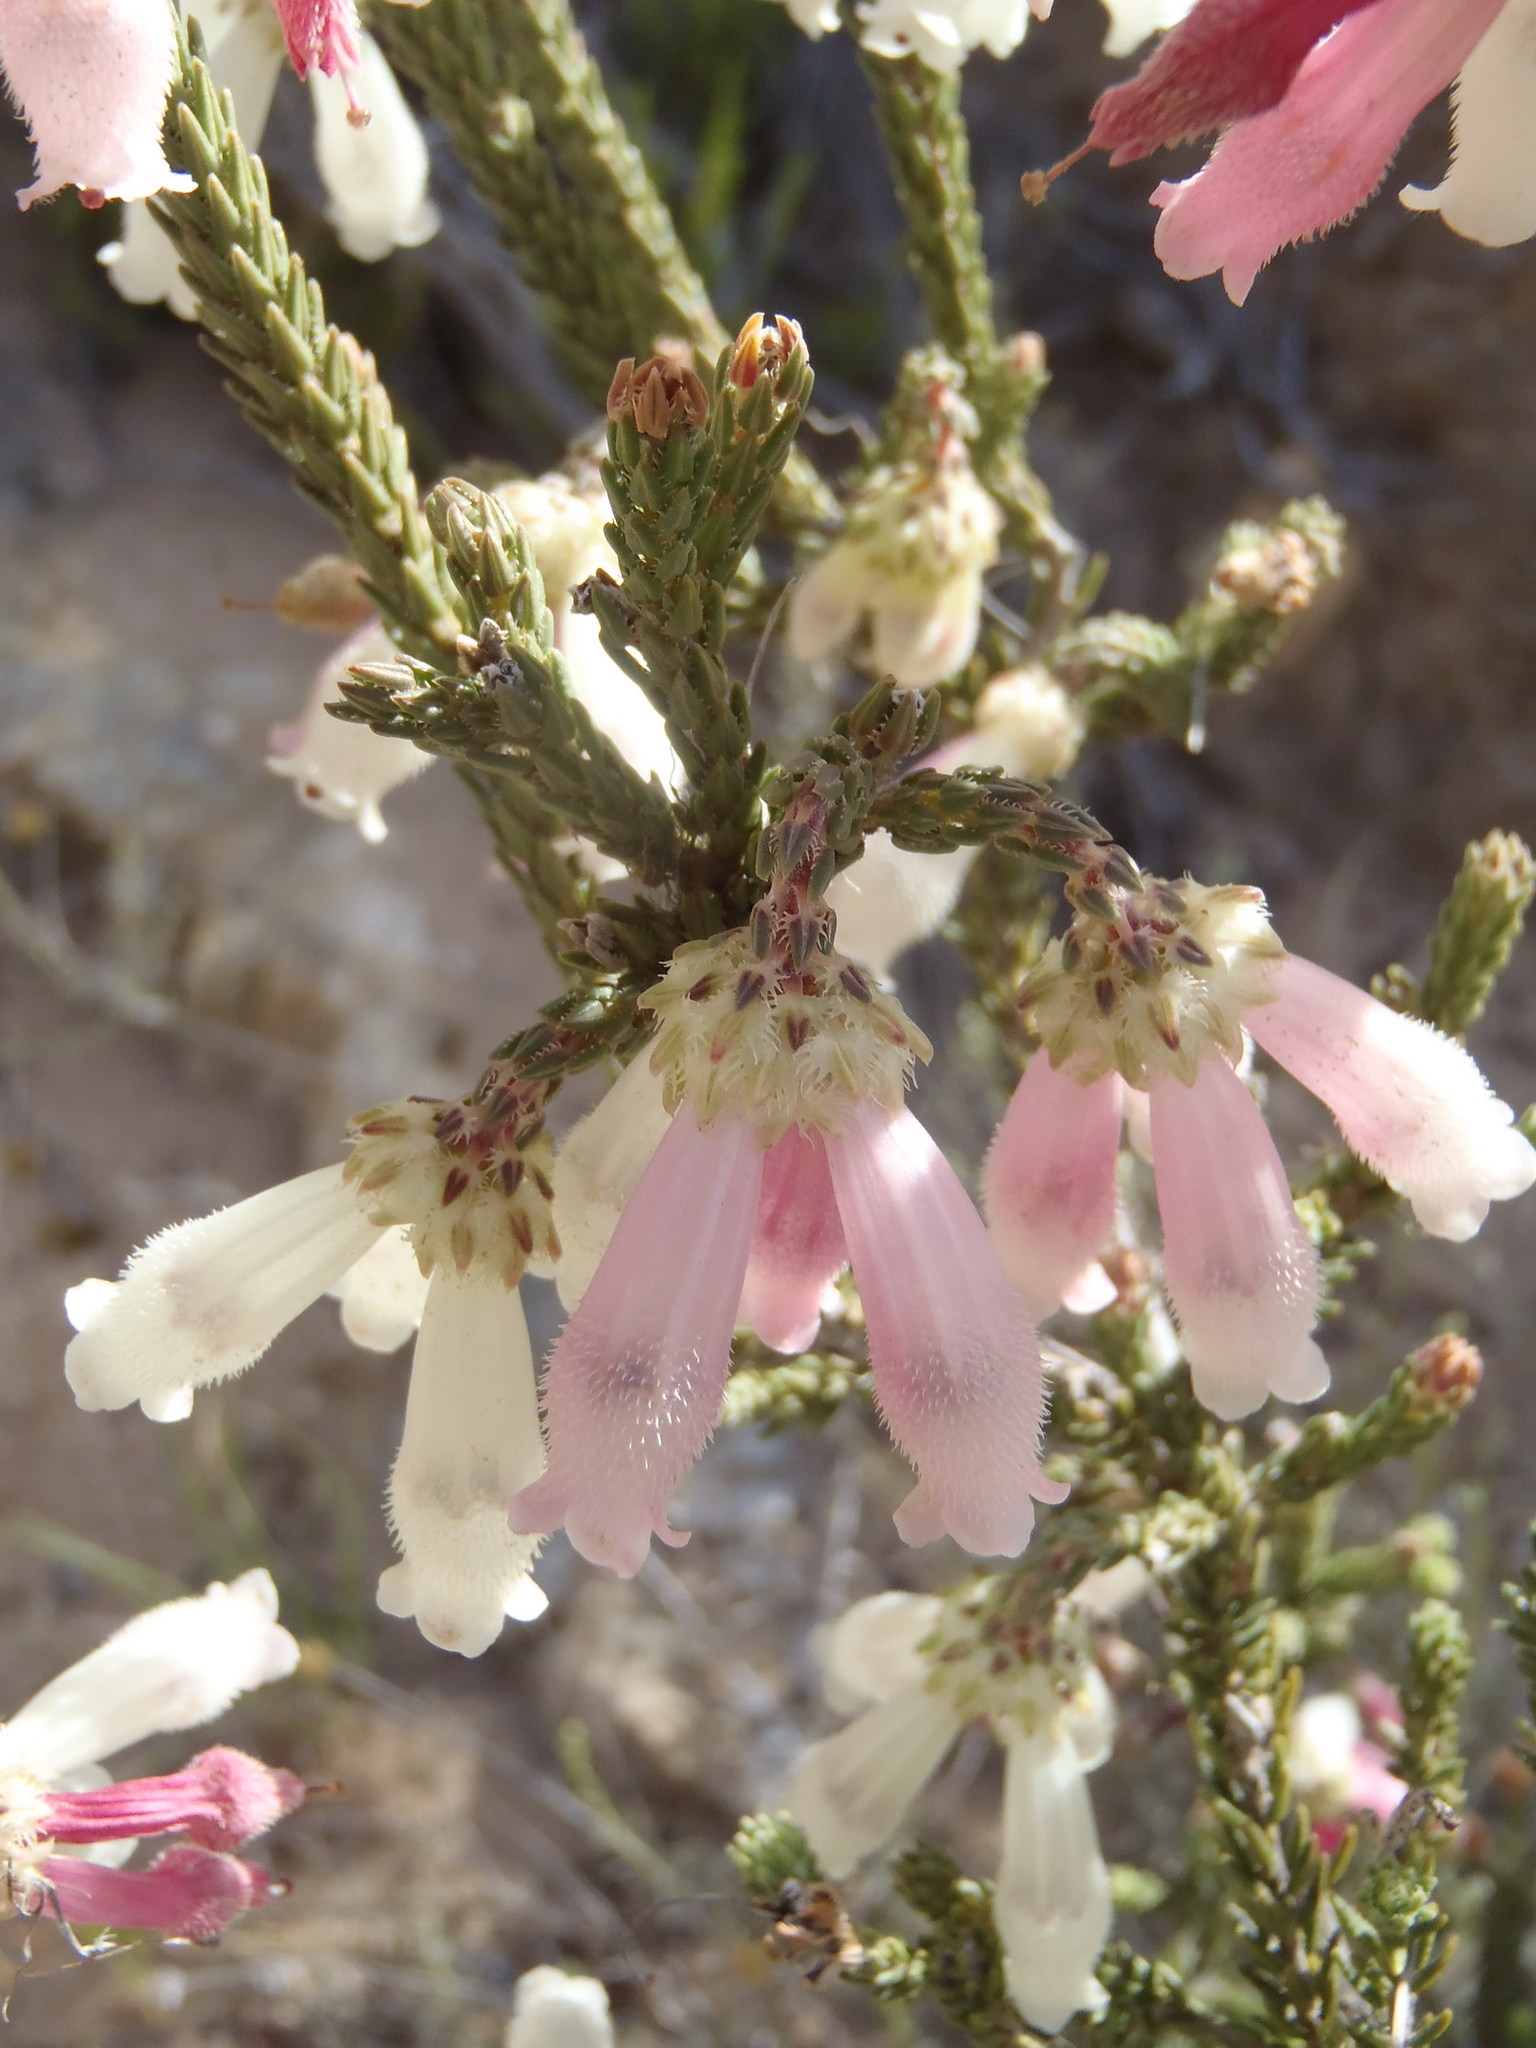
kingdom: Plantae
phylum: Tracheophyta
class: Magnoliopsida
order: Ericales
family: Ericaceae
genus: Erica
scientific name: Erica pectinifolia
